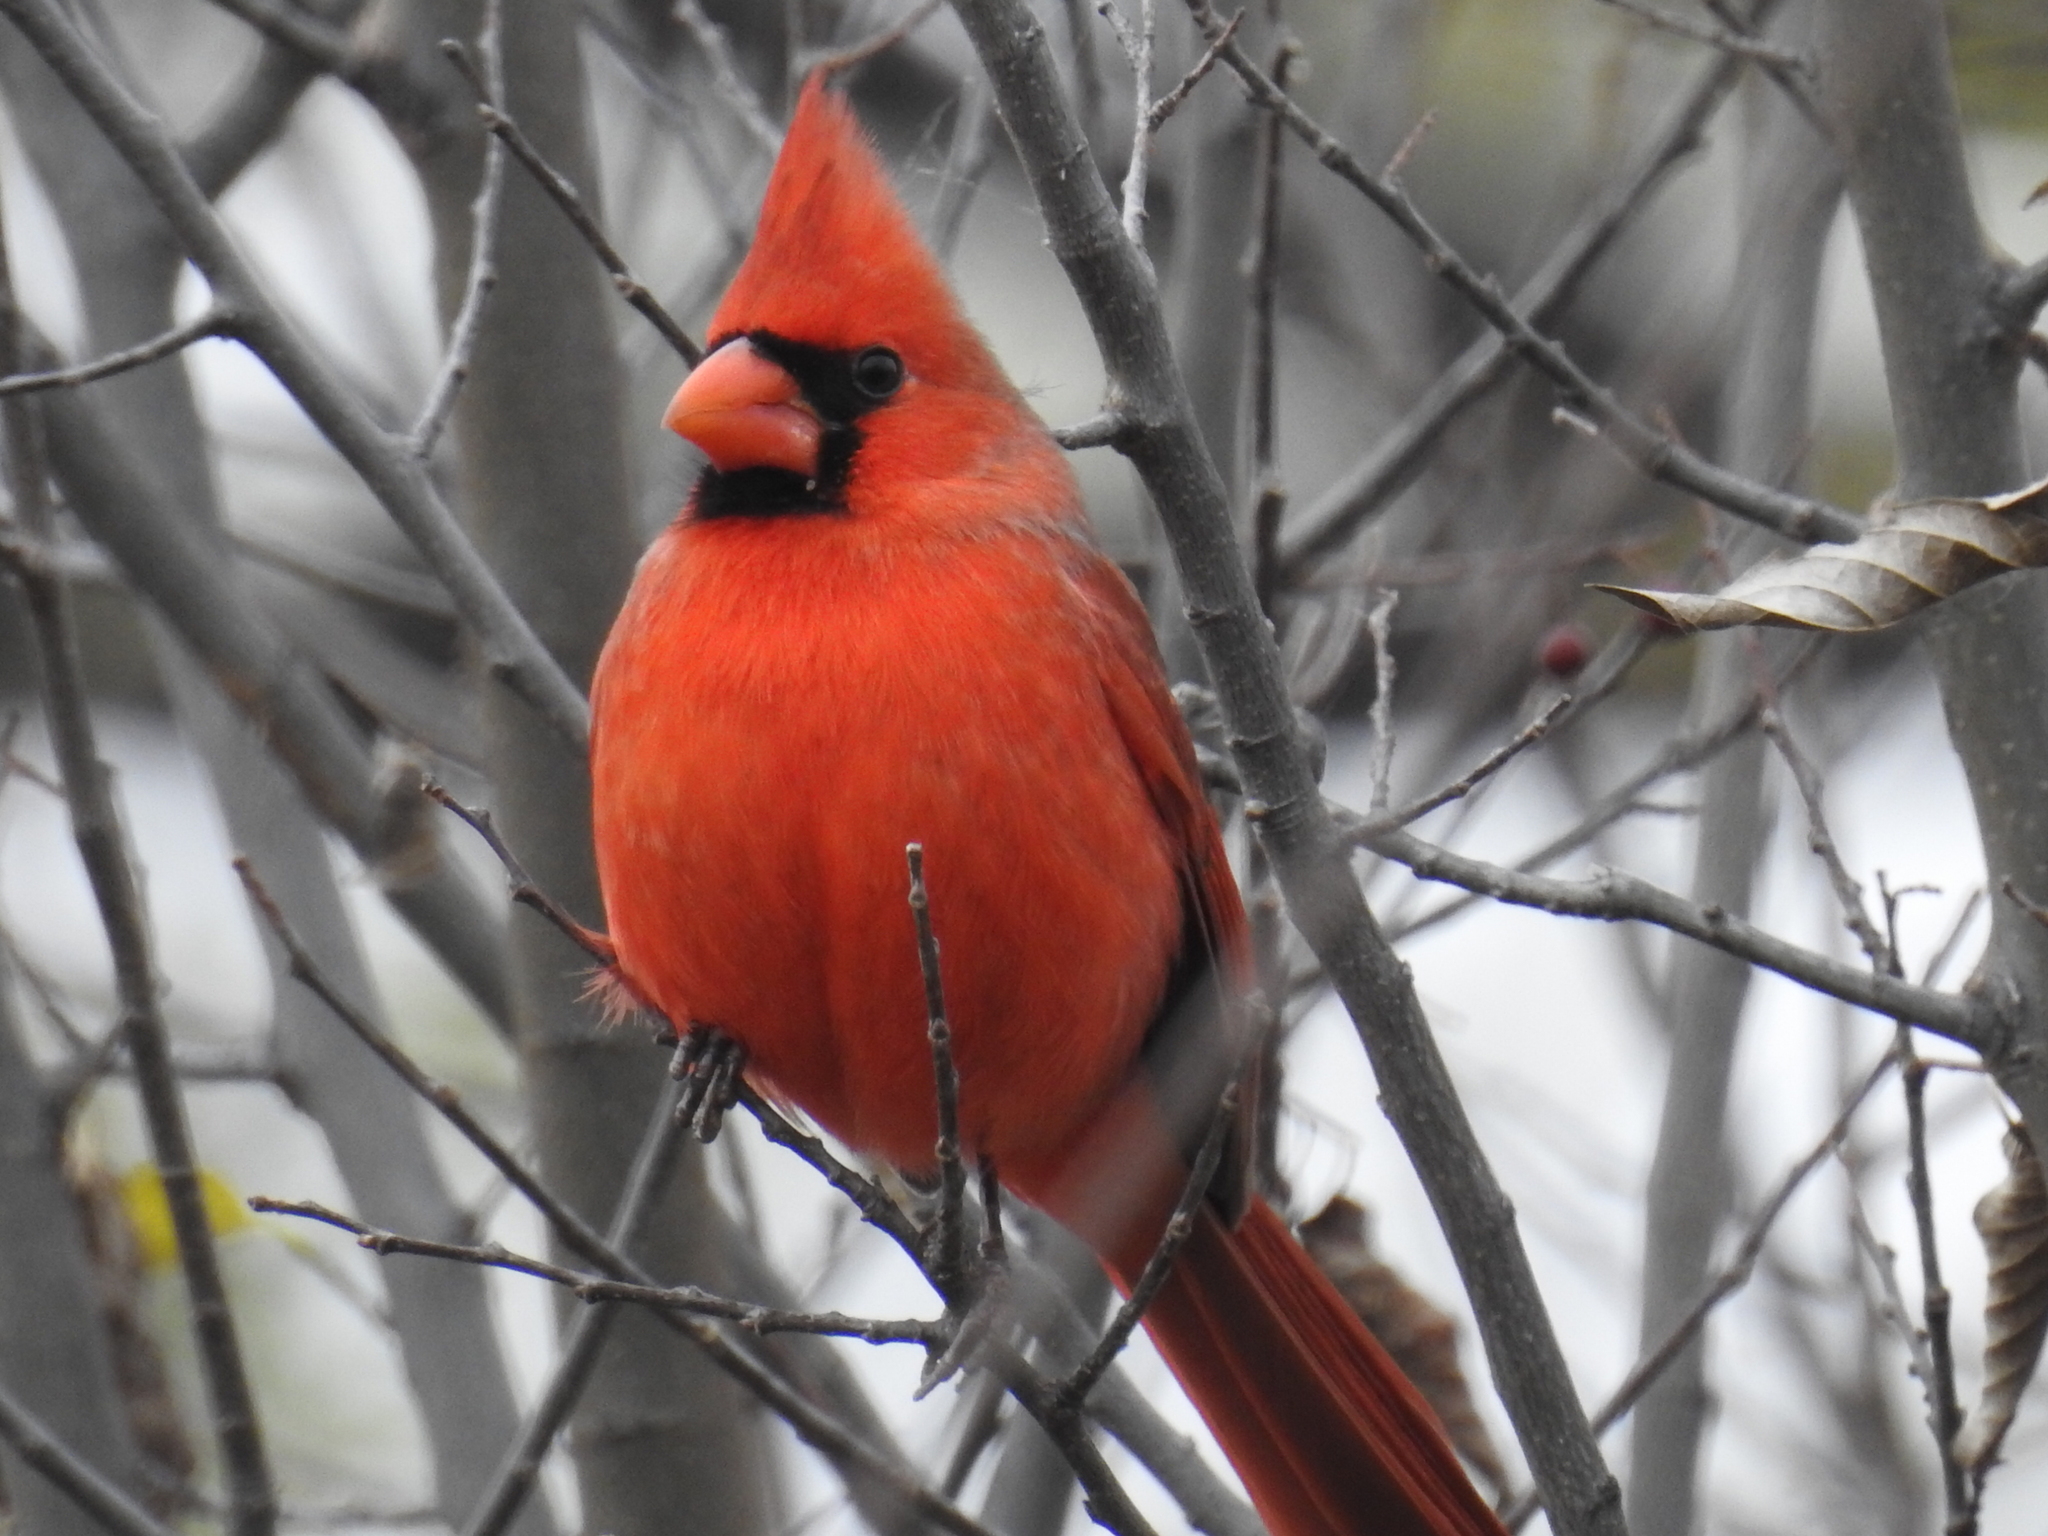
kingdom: Animalia
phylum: Chordata
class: Aves
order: Passeriformes
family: Cardinalidae
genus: Cardinalis
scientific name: Cardinalis cardinalis
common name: Northern cardinal
